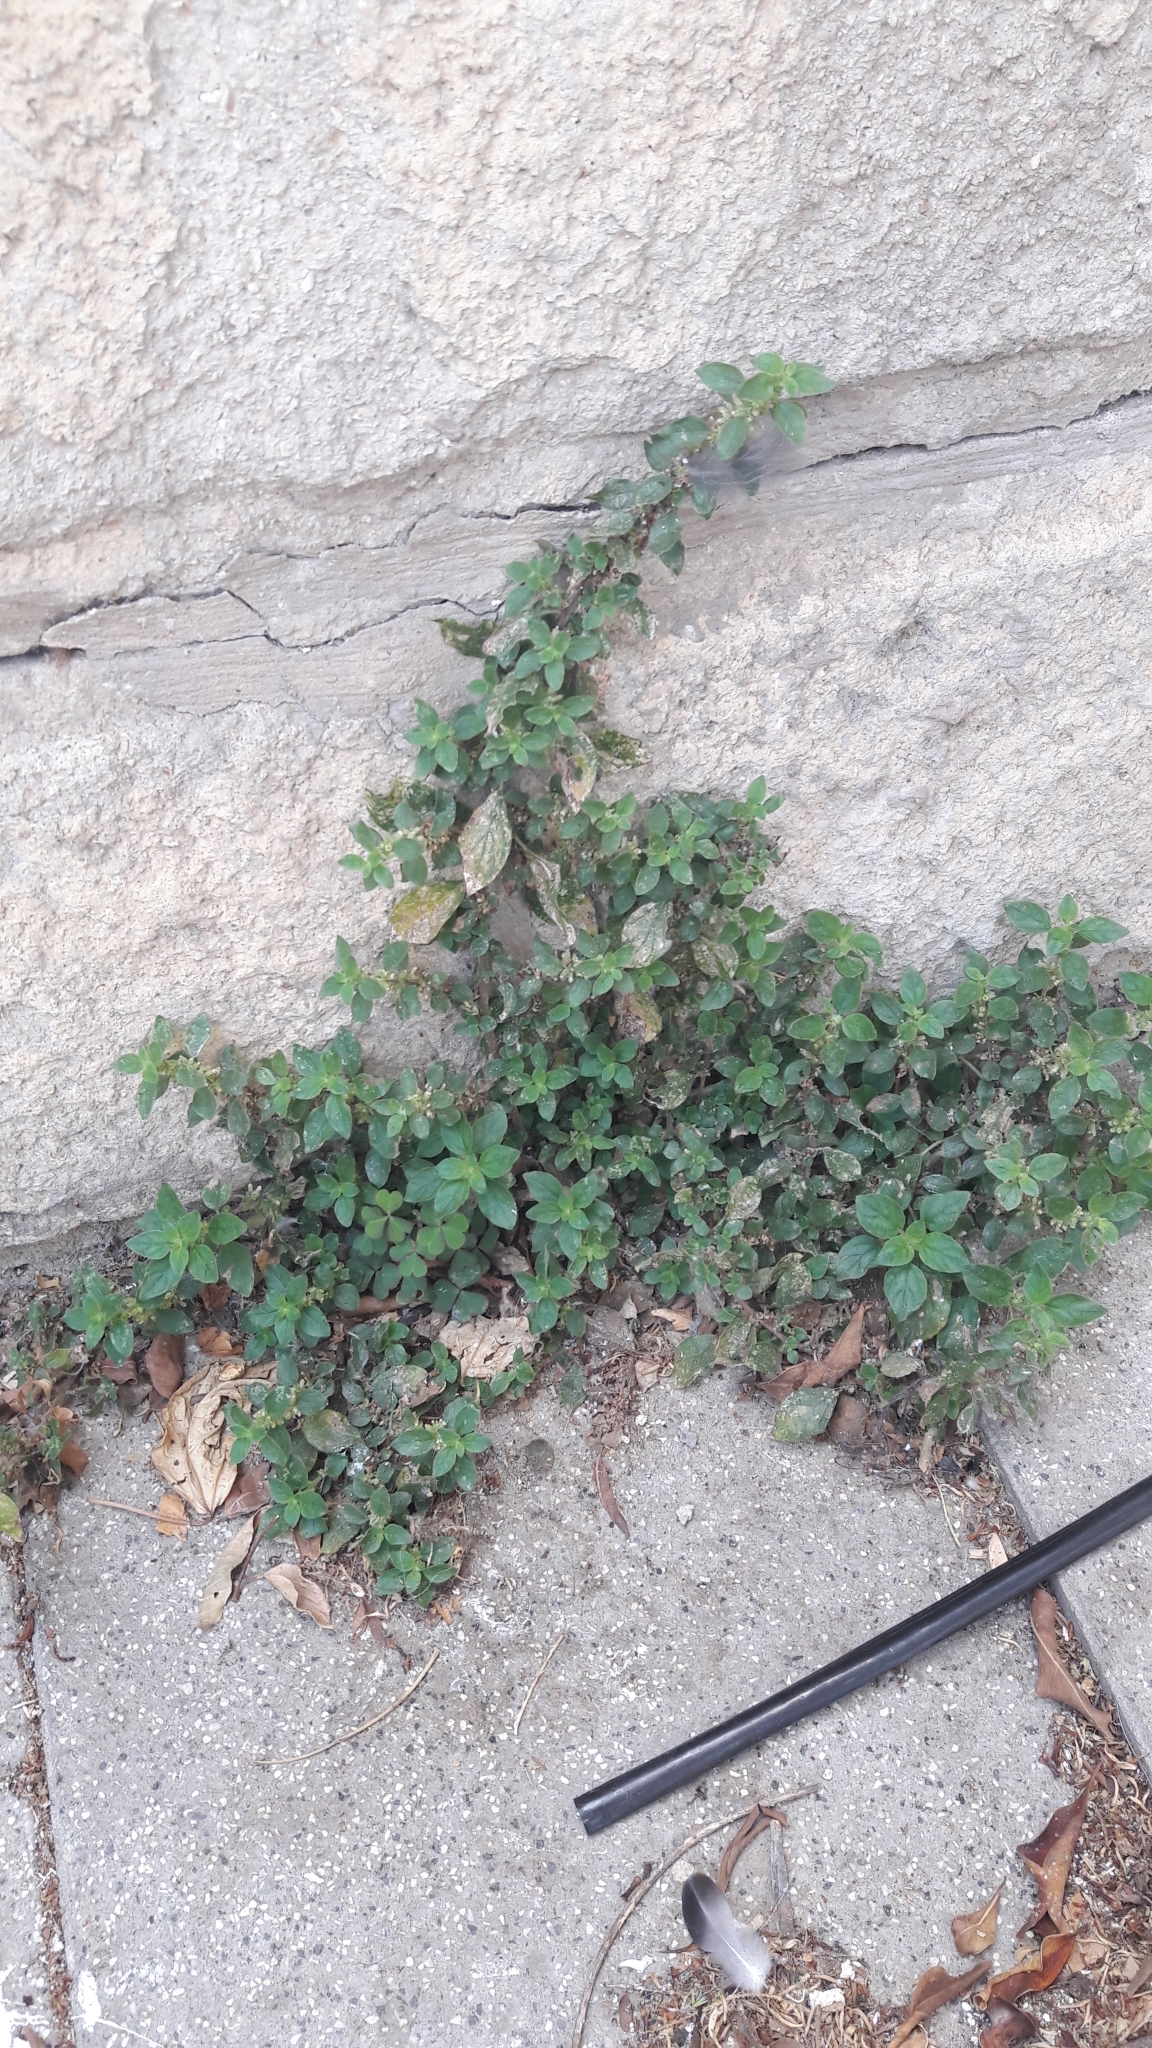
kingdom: Plantae
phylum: Tracheophyta
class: Magnoliopsida
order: Rosales
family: Urticaceae
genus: Parietaria
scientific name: Parietaria judaica
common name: Pellitory-of-the-wall
